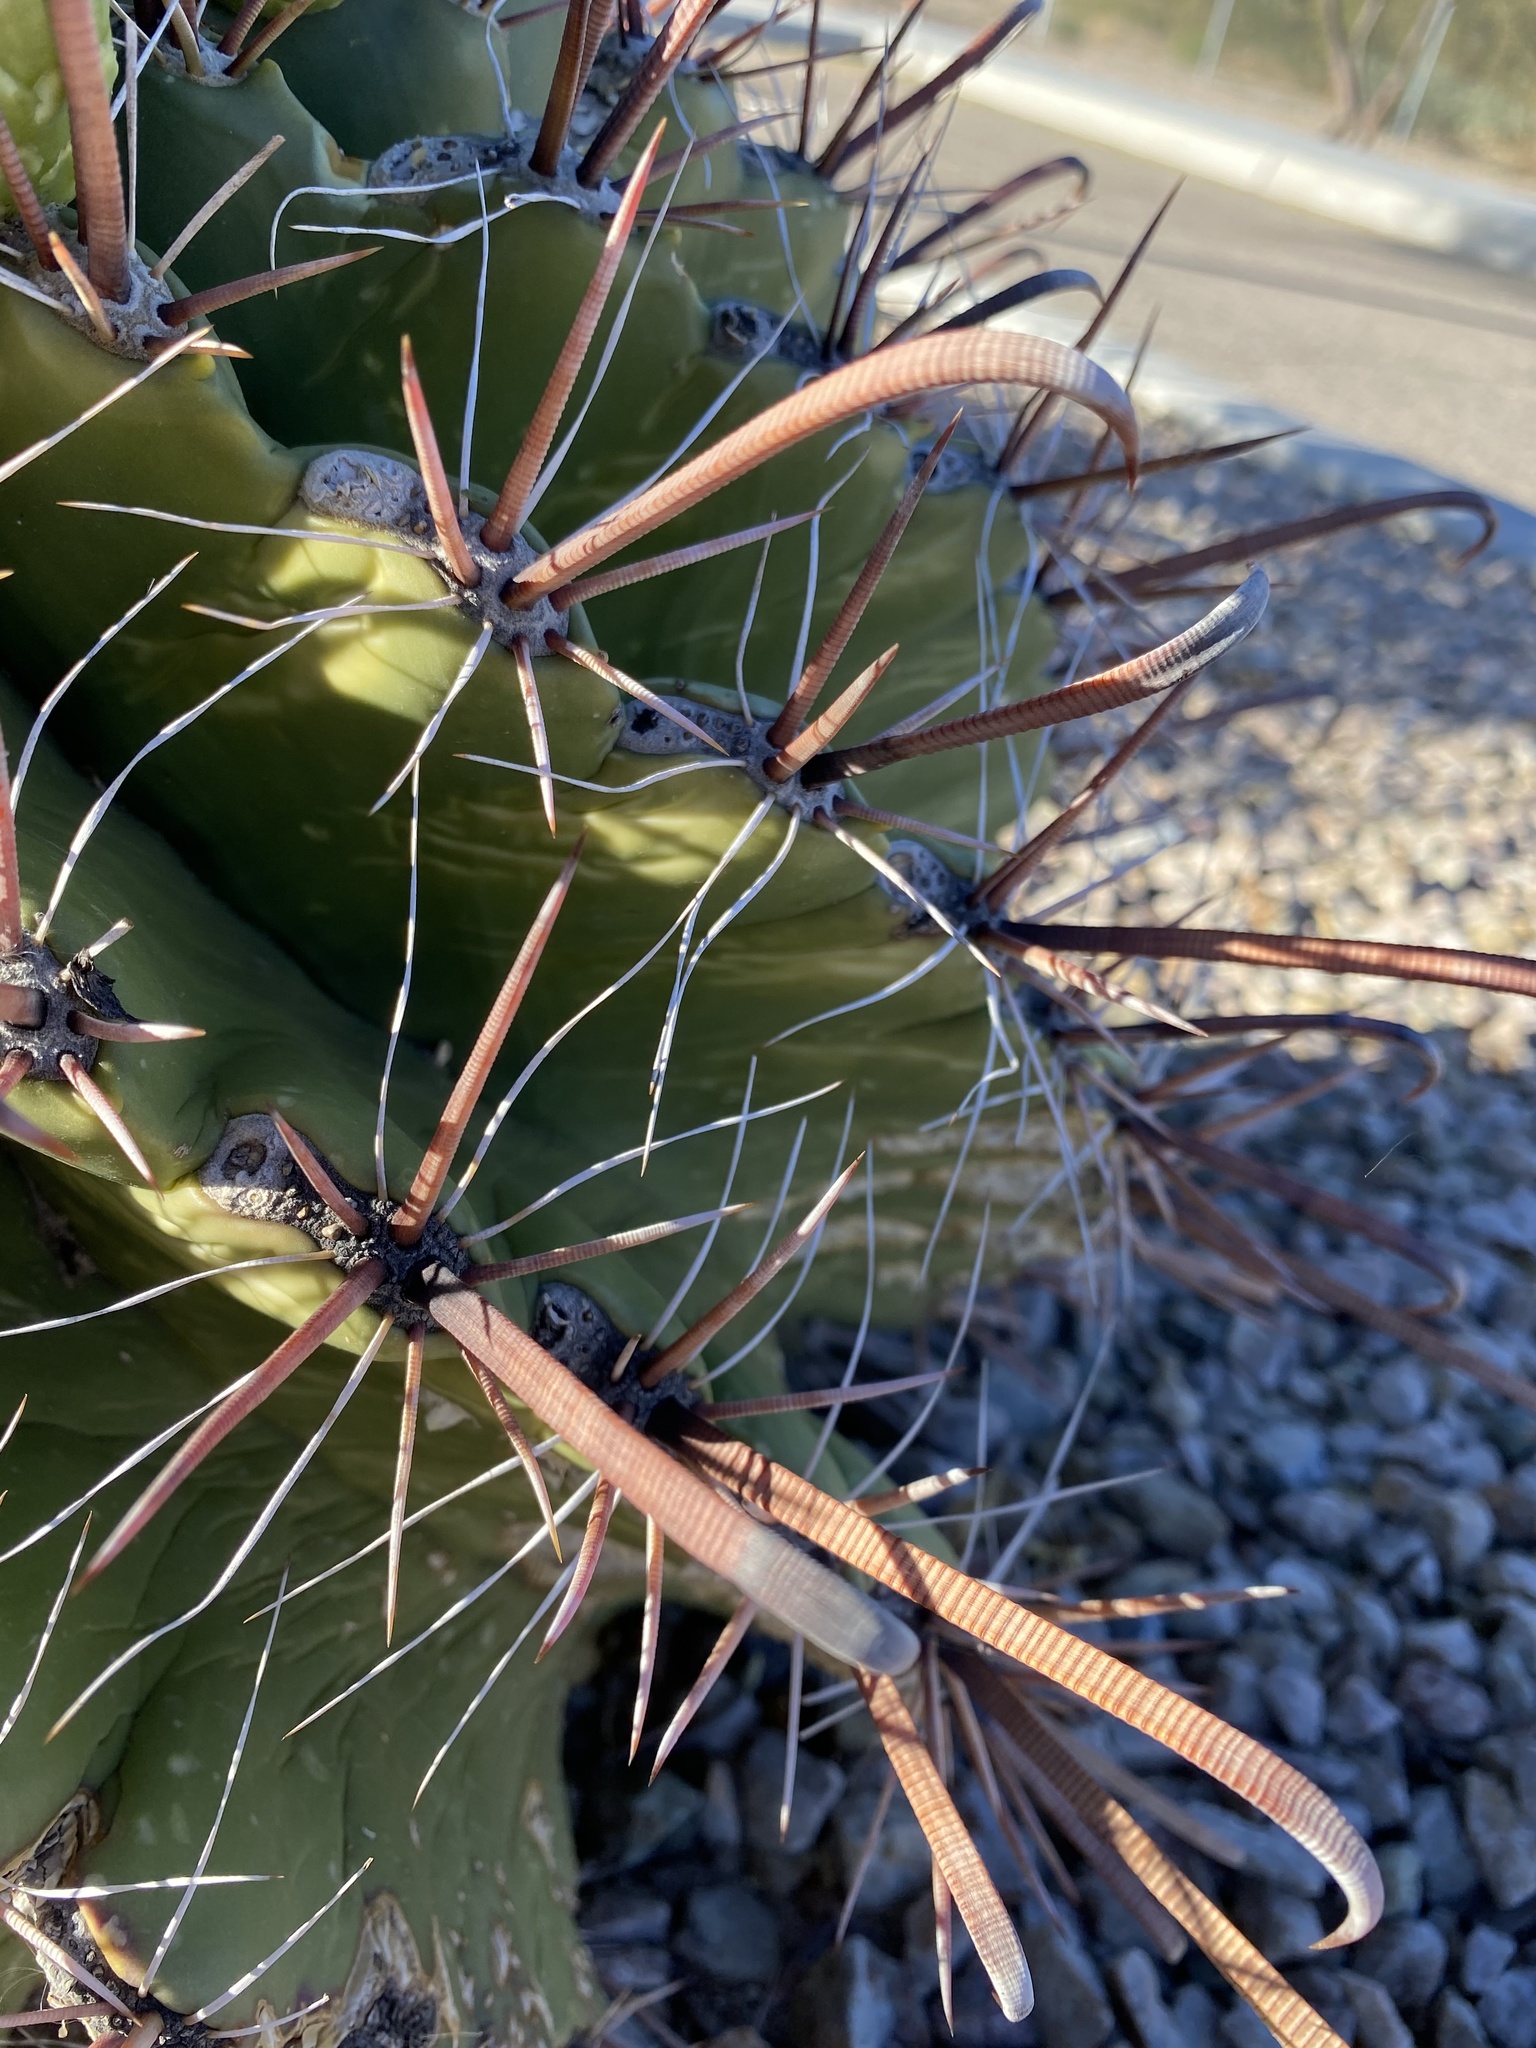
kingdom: Plantae
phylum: Tracheophyta
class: Magnoliopsida
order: Caryophyllales
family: Cactaceae
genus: Ferocactus
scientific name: Ferocactus wislizeni
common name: Candy barrel cactus
